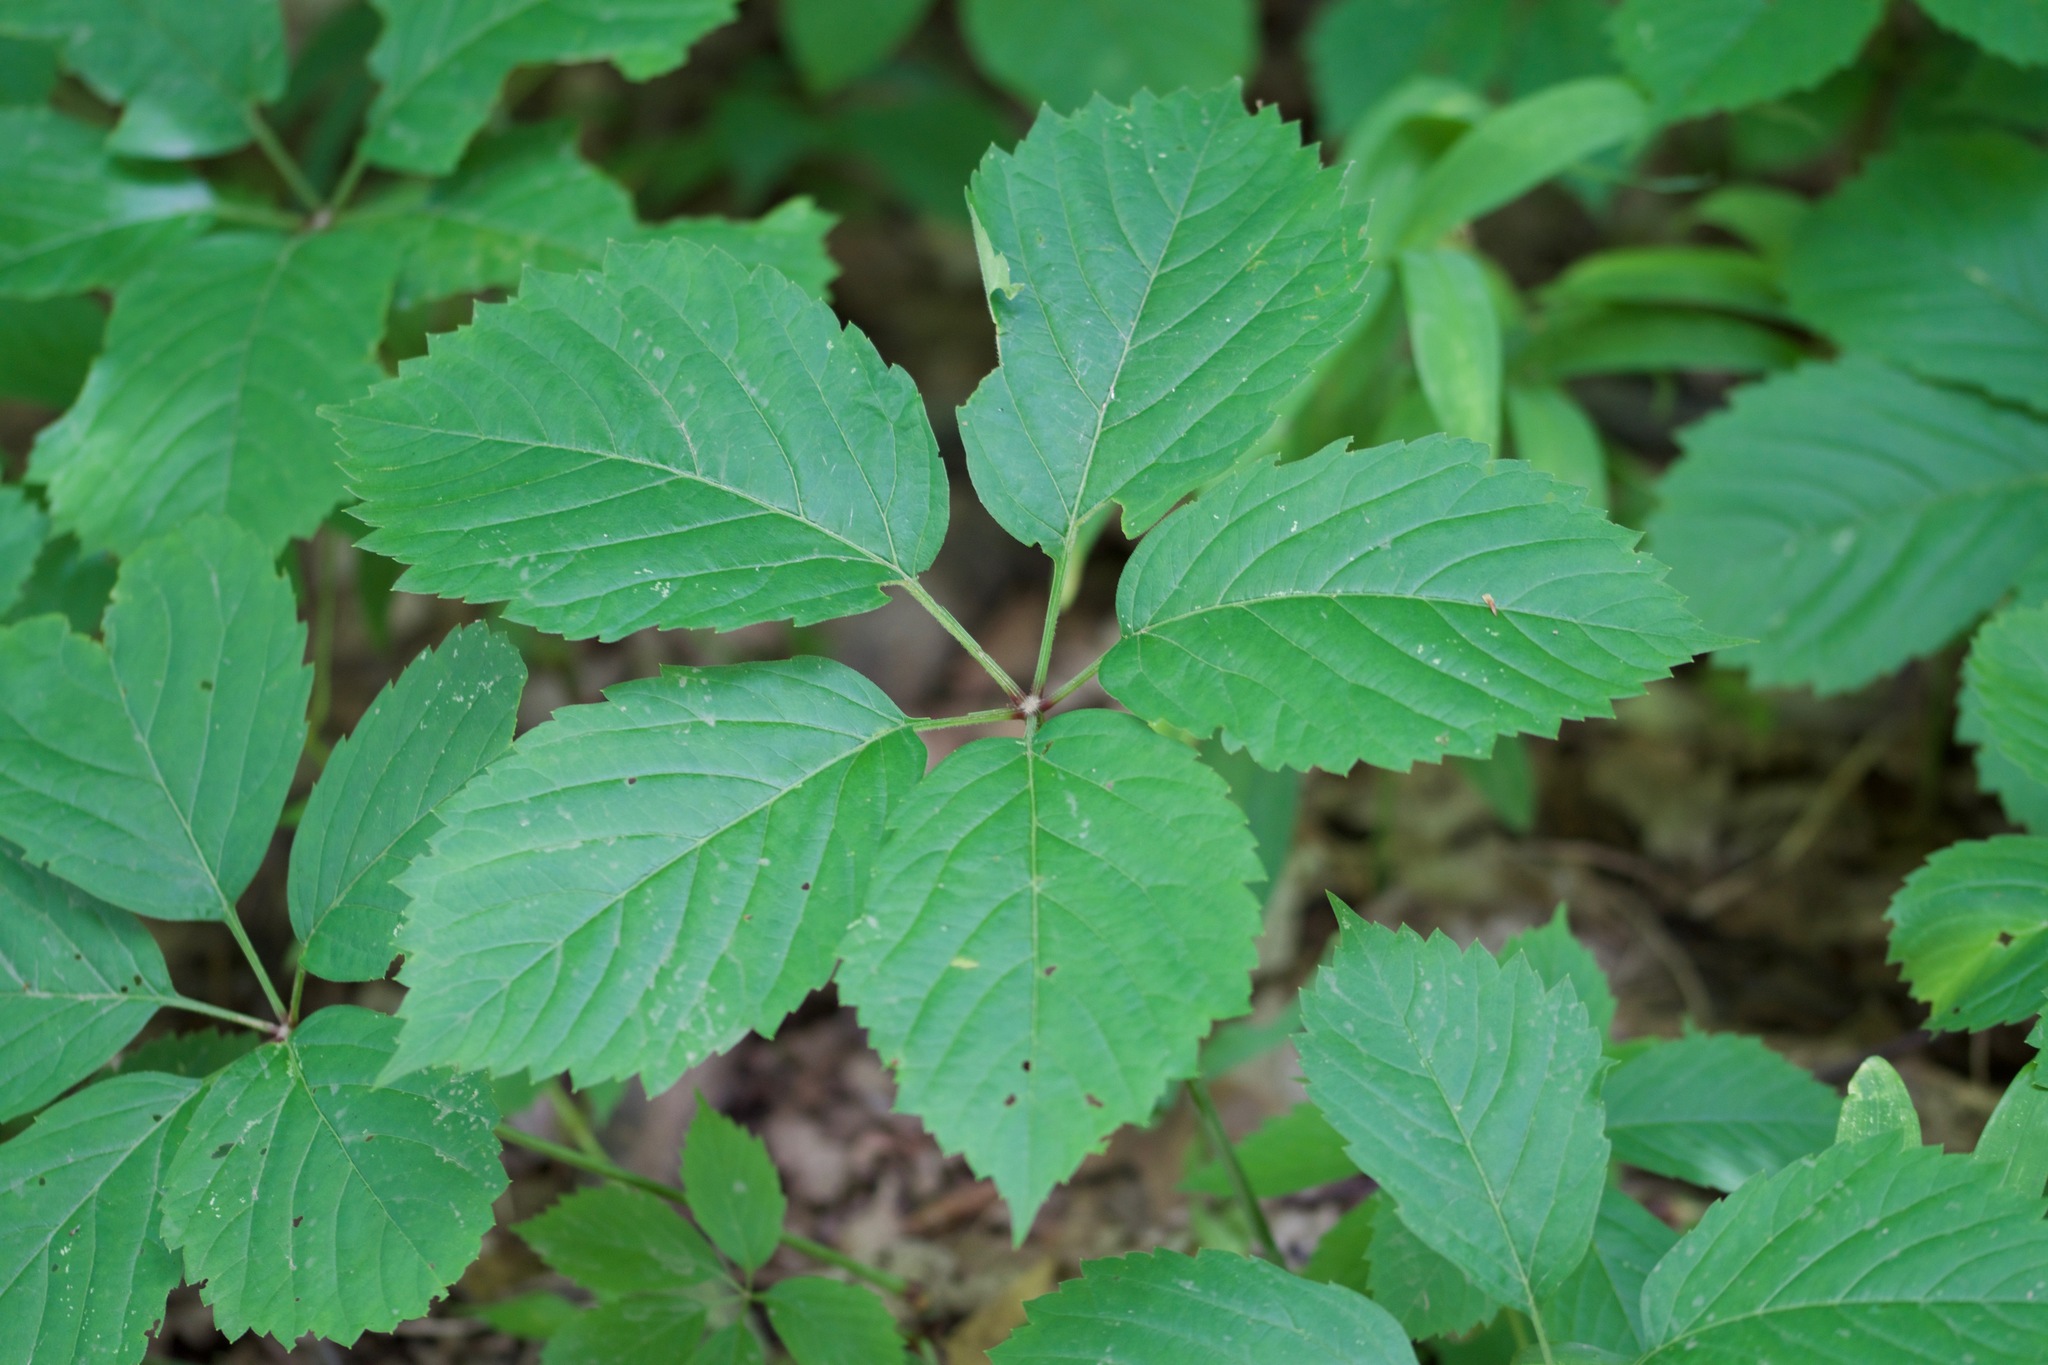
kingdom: Plantae
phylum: Tracheophyta
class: Magnoliopsida
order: Vitales
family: Vitaceae
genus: Parthenocissus
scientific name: Parthenocissus inserta
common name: False virginia-creeper
